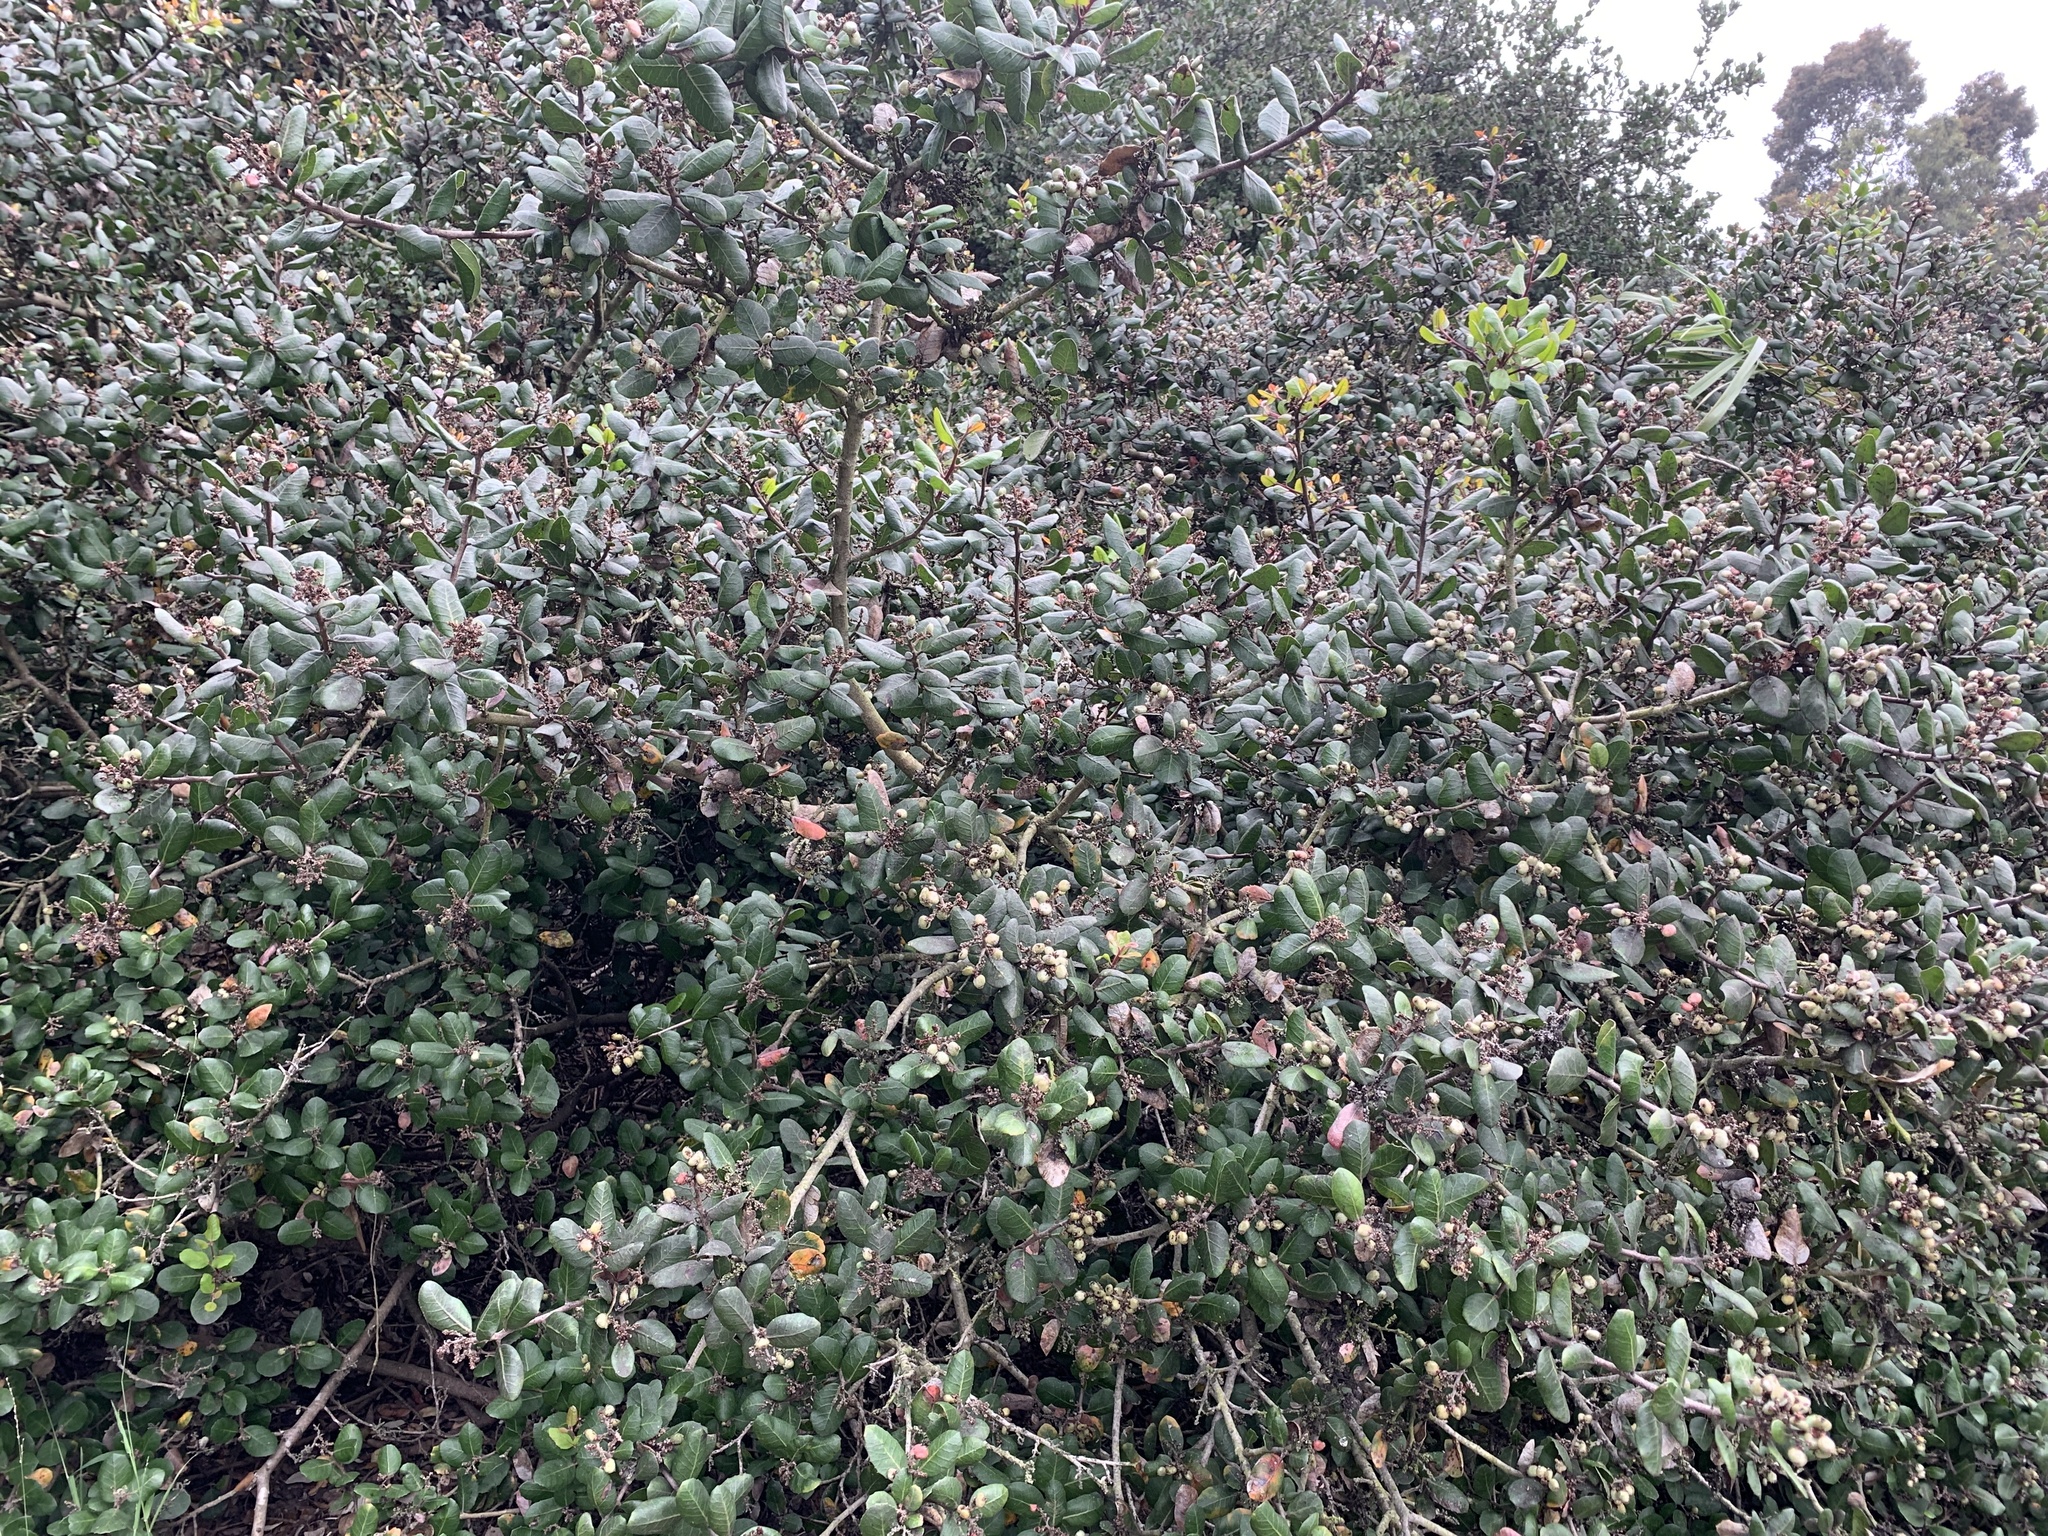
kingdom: Plantae
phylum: Tracheophyta
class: Magnoliopsida
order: Sapindales
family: Anacardiaceae
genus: Rhus
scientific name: Rhus integrifolia
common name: Lemonade sumac
